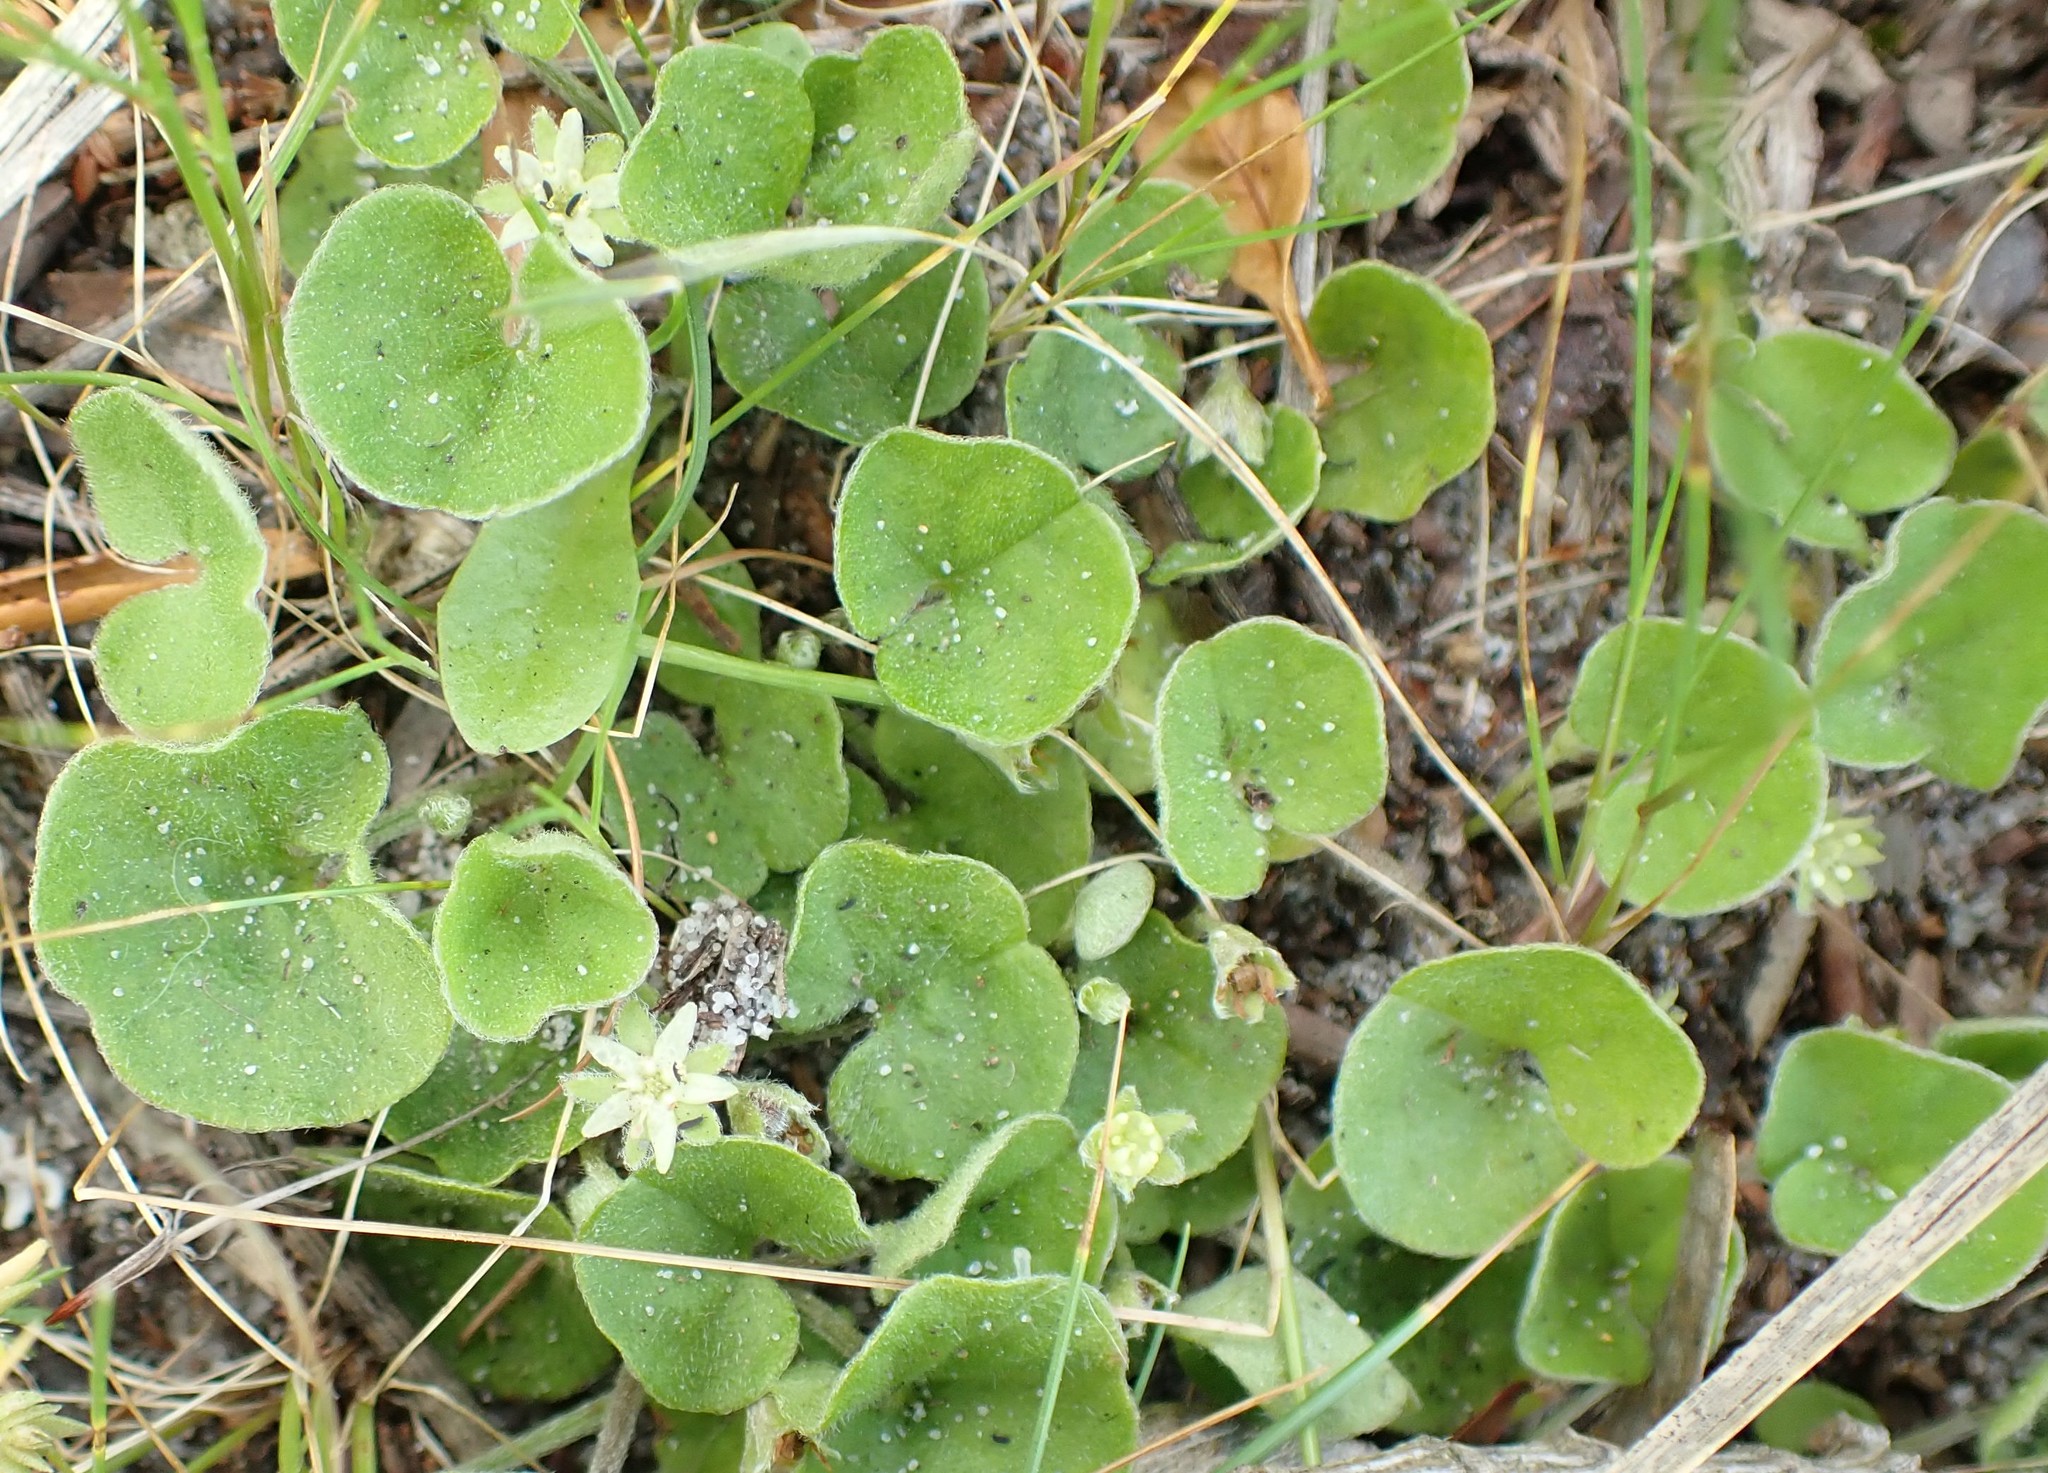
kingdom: Plantae
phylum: Tracheophyta
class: Magnoliopsida
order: Solanales
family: Convolvulaceae
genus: Dichondra
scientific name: Dichondra repens
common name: Kidneyweed
